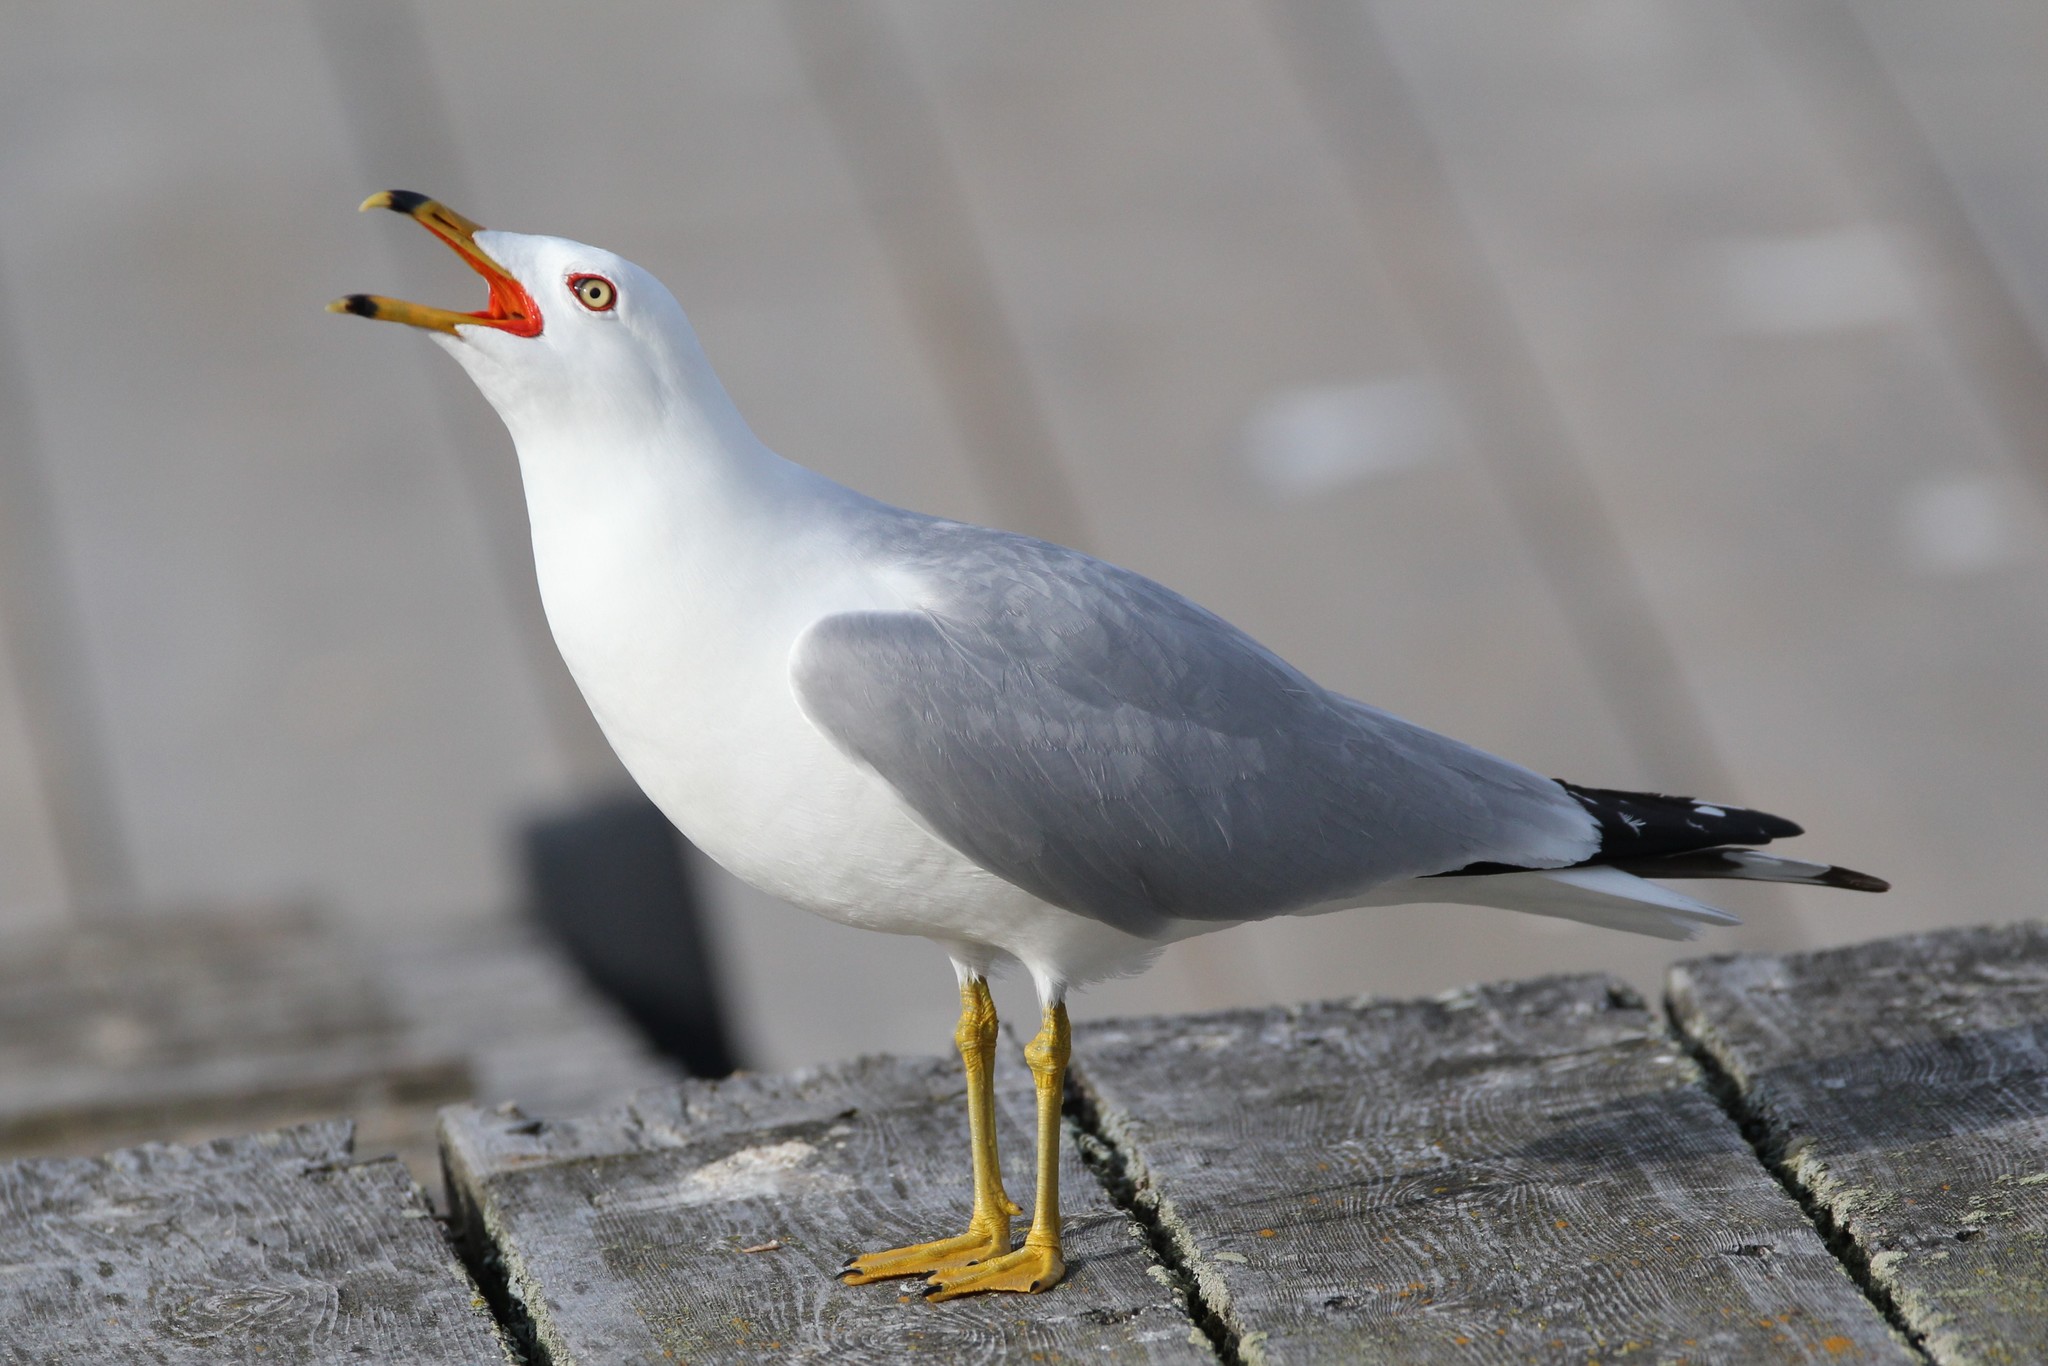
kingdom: Animalia
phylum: Chordata
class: Aves
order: Charadriiformes
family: Laridae
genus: Larus
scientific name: Larus delawarensis
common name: Ring-billed gull
